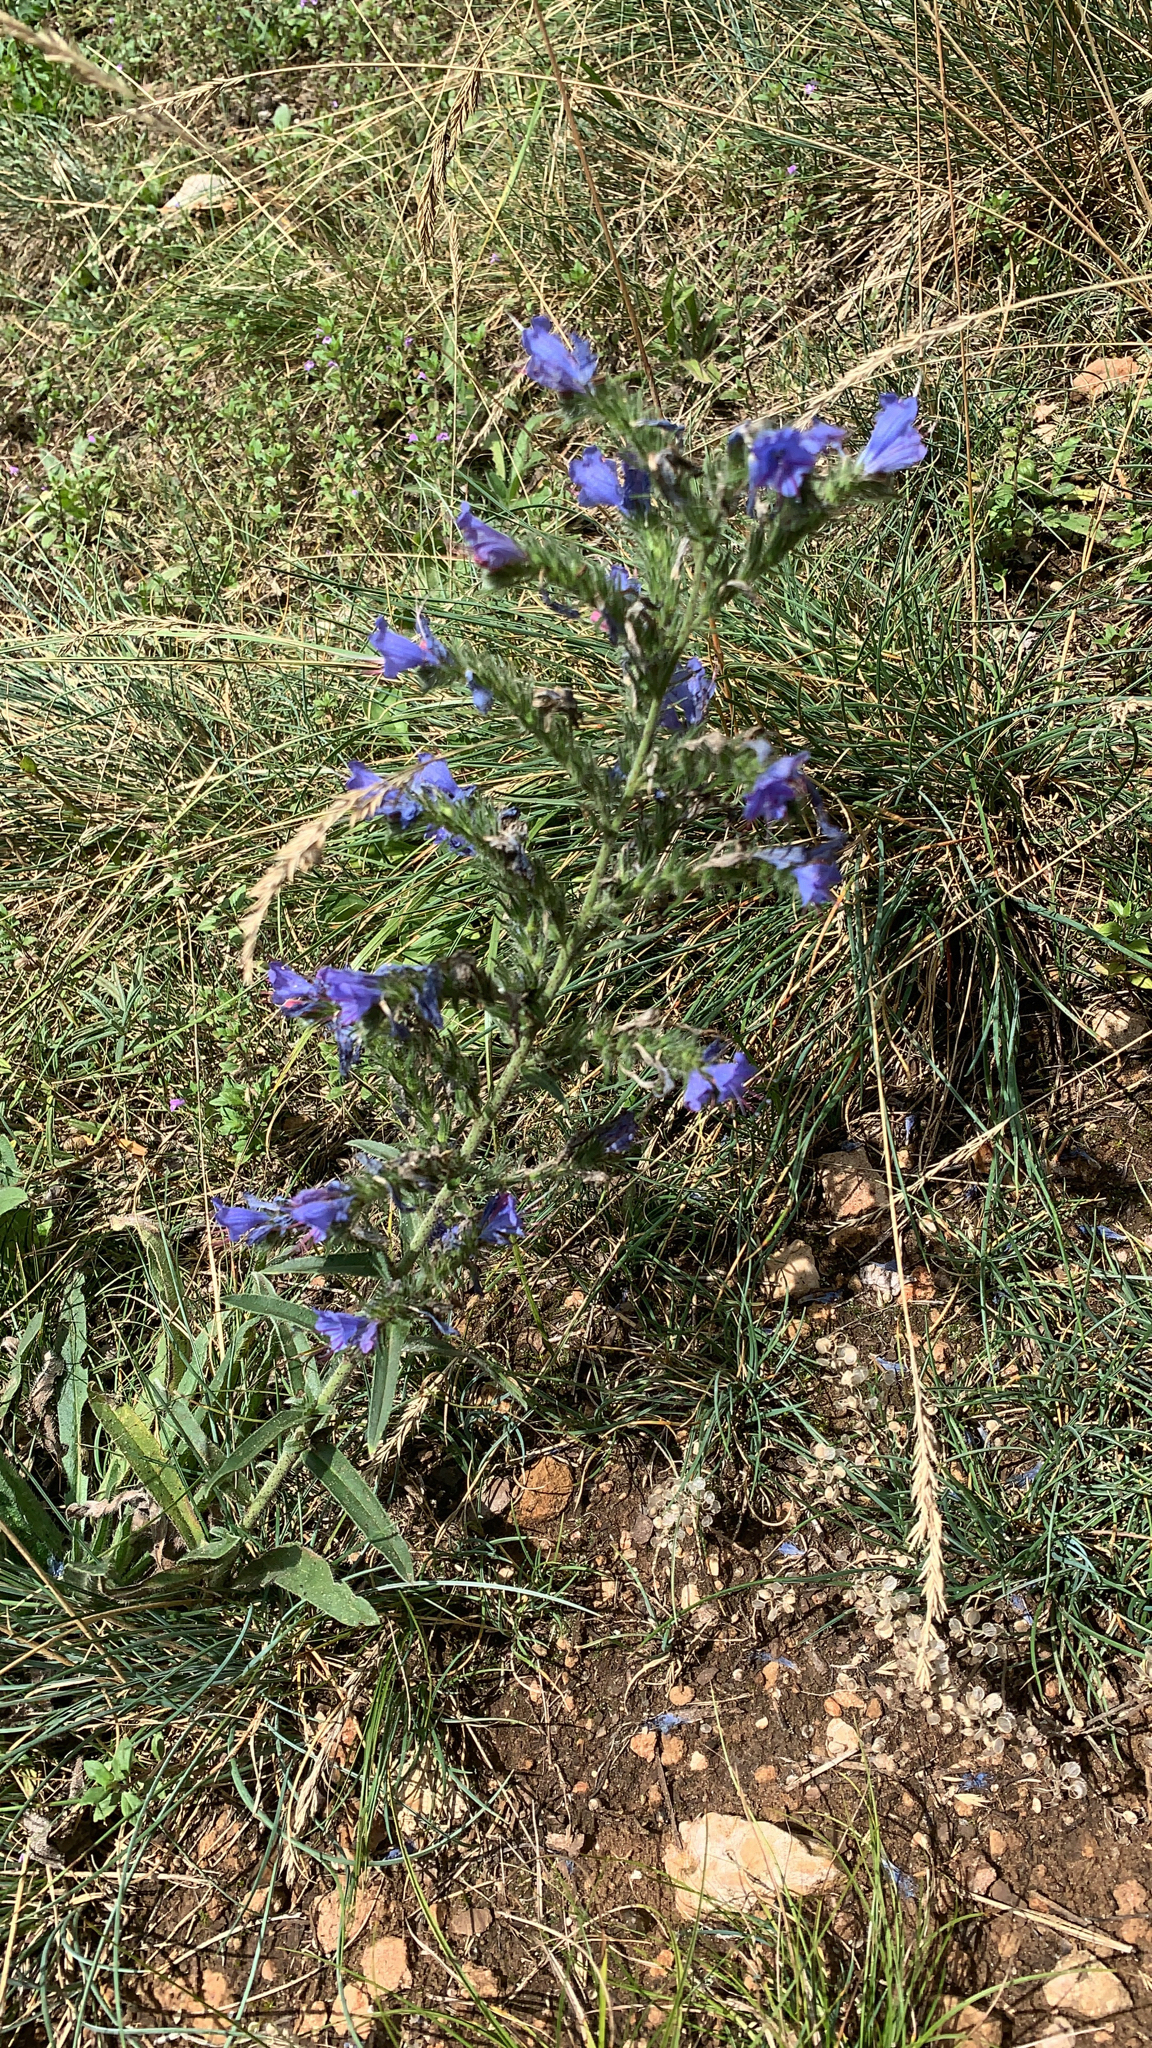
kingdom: Plantae
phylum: Tracheophyta
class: Magnoliopsida
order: Boraginales
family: Boraginaceae
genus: Echium
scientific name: Echium vulgare
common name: Common viper's bugloss
